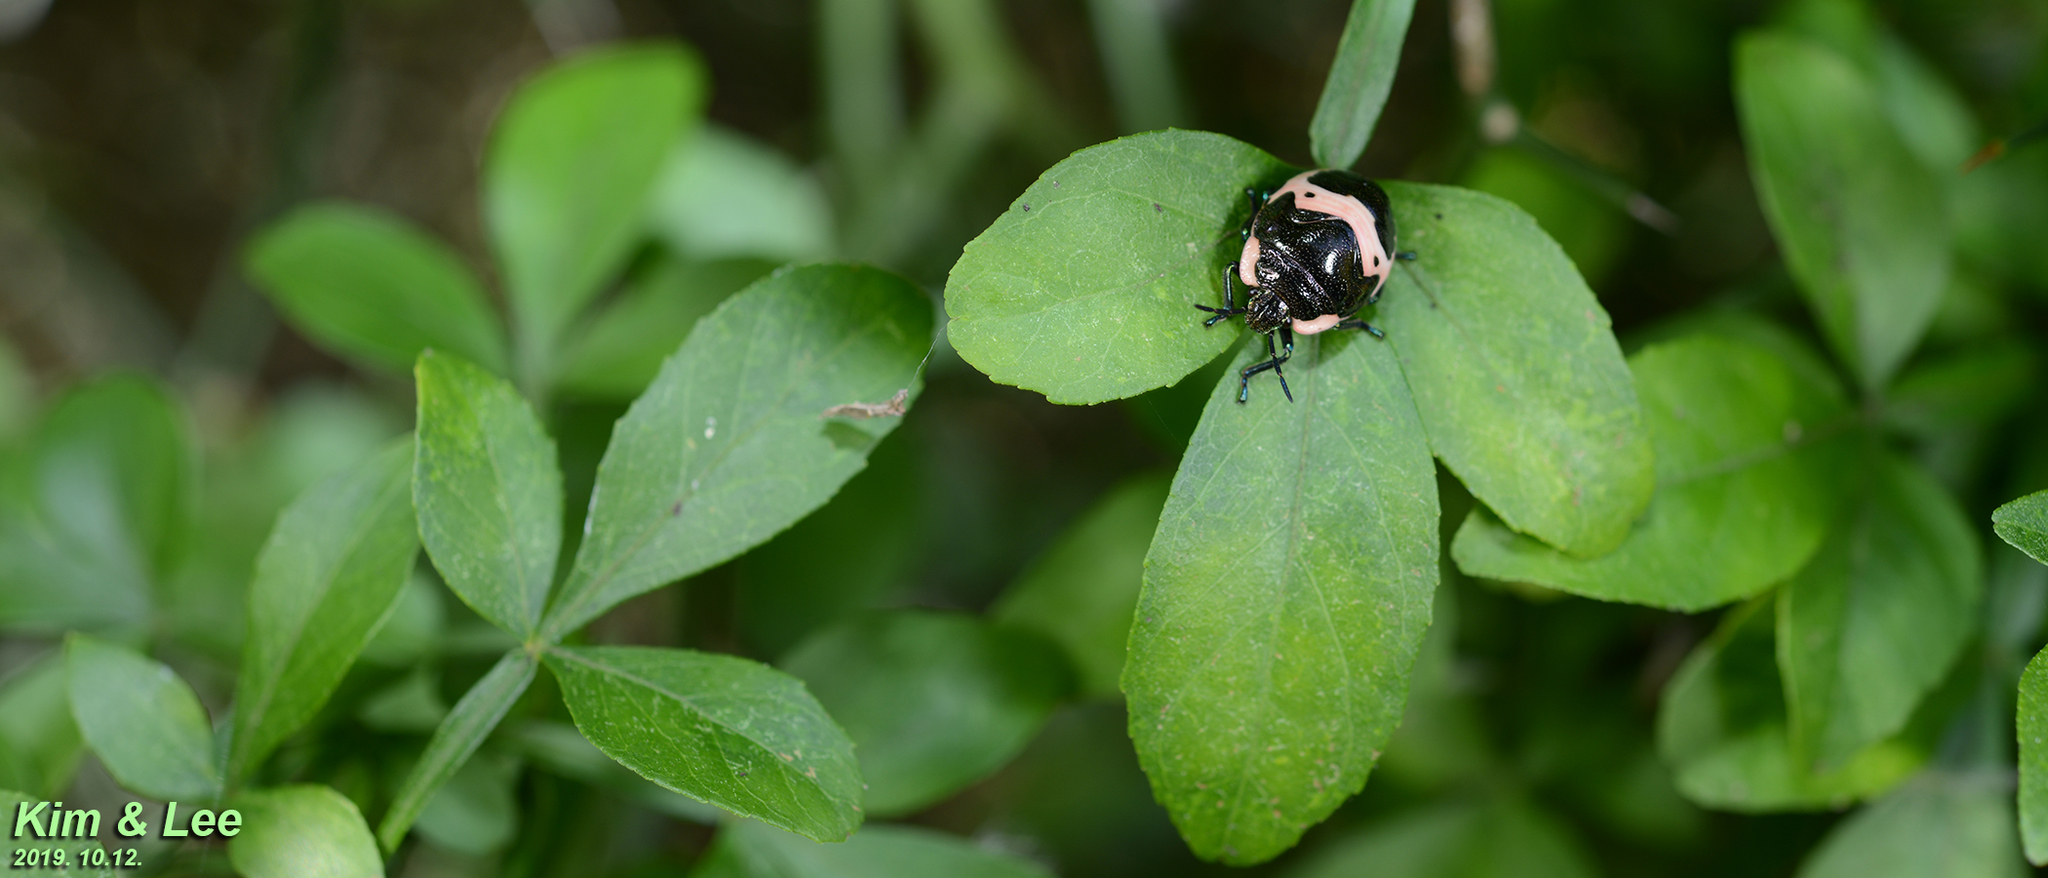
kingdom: Animalia
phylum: Arthropoda
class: Insecta
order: Hemiptera
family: Scutelleridae
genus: Poecilocoris
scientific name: Poecilocoris lewisi
